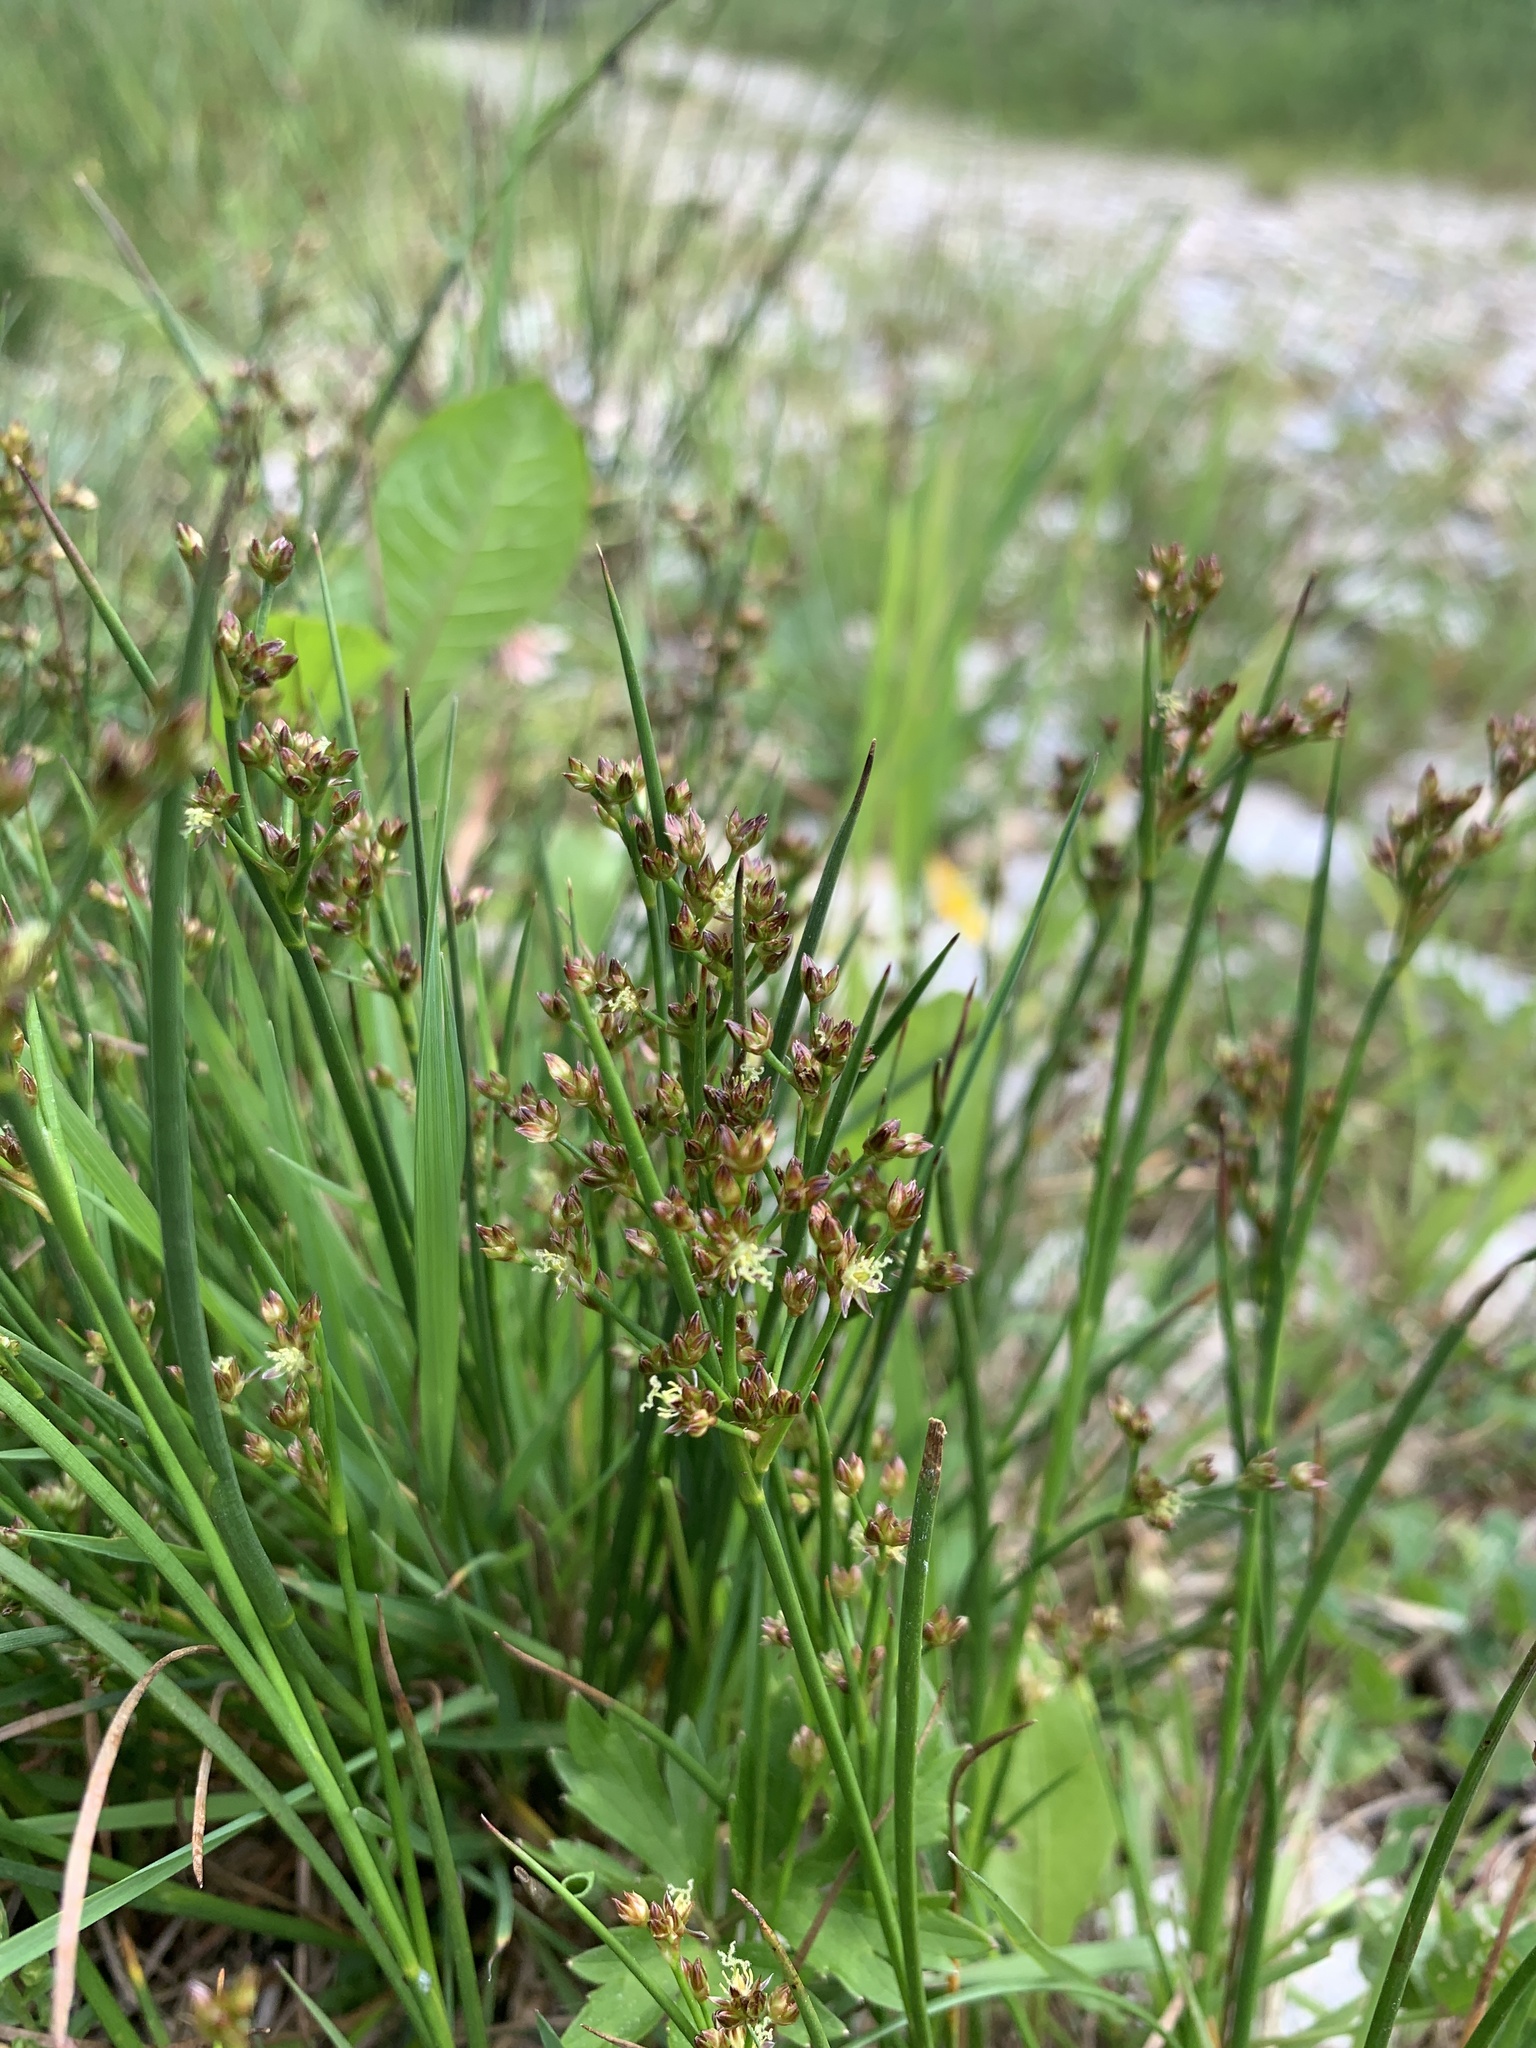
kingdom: Plantae
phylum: Tracheophyta
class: Liliopsida
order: Poales
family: Juncaceae
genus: Juncus
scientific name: Juncus articulatus
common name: Jointed rush
